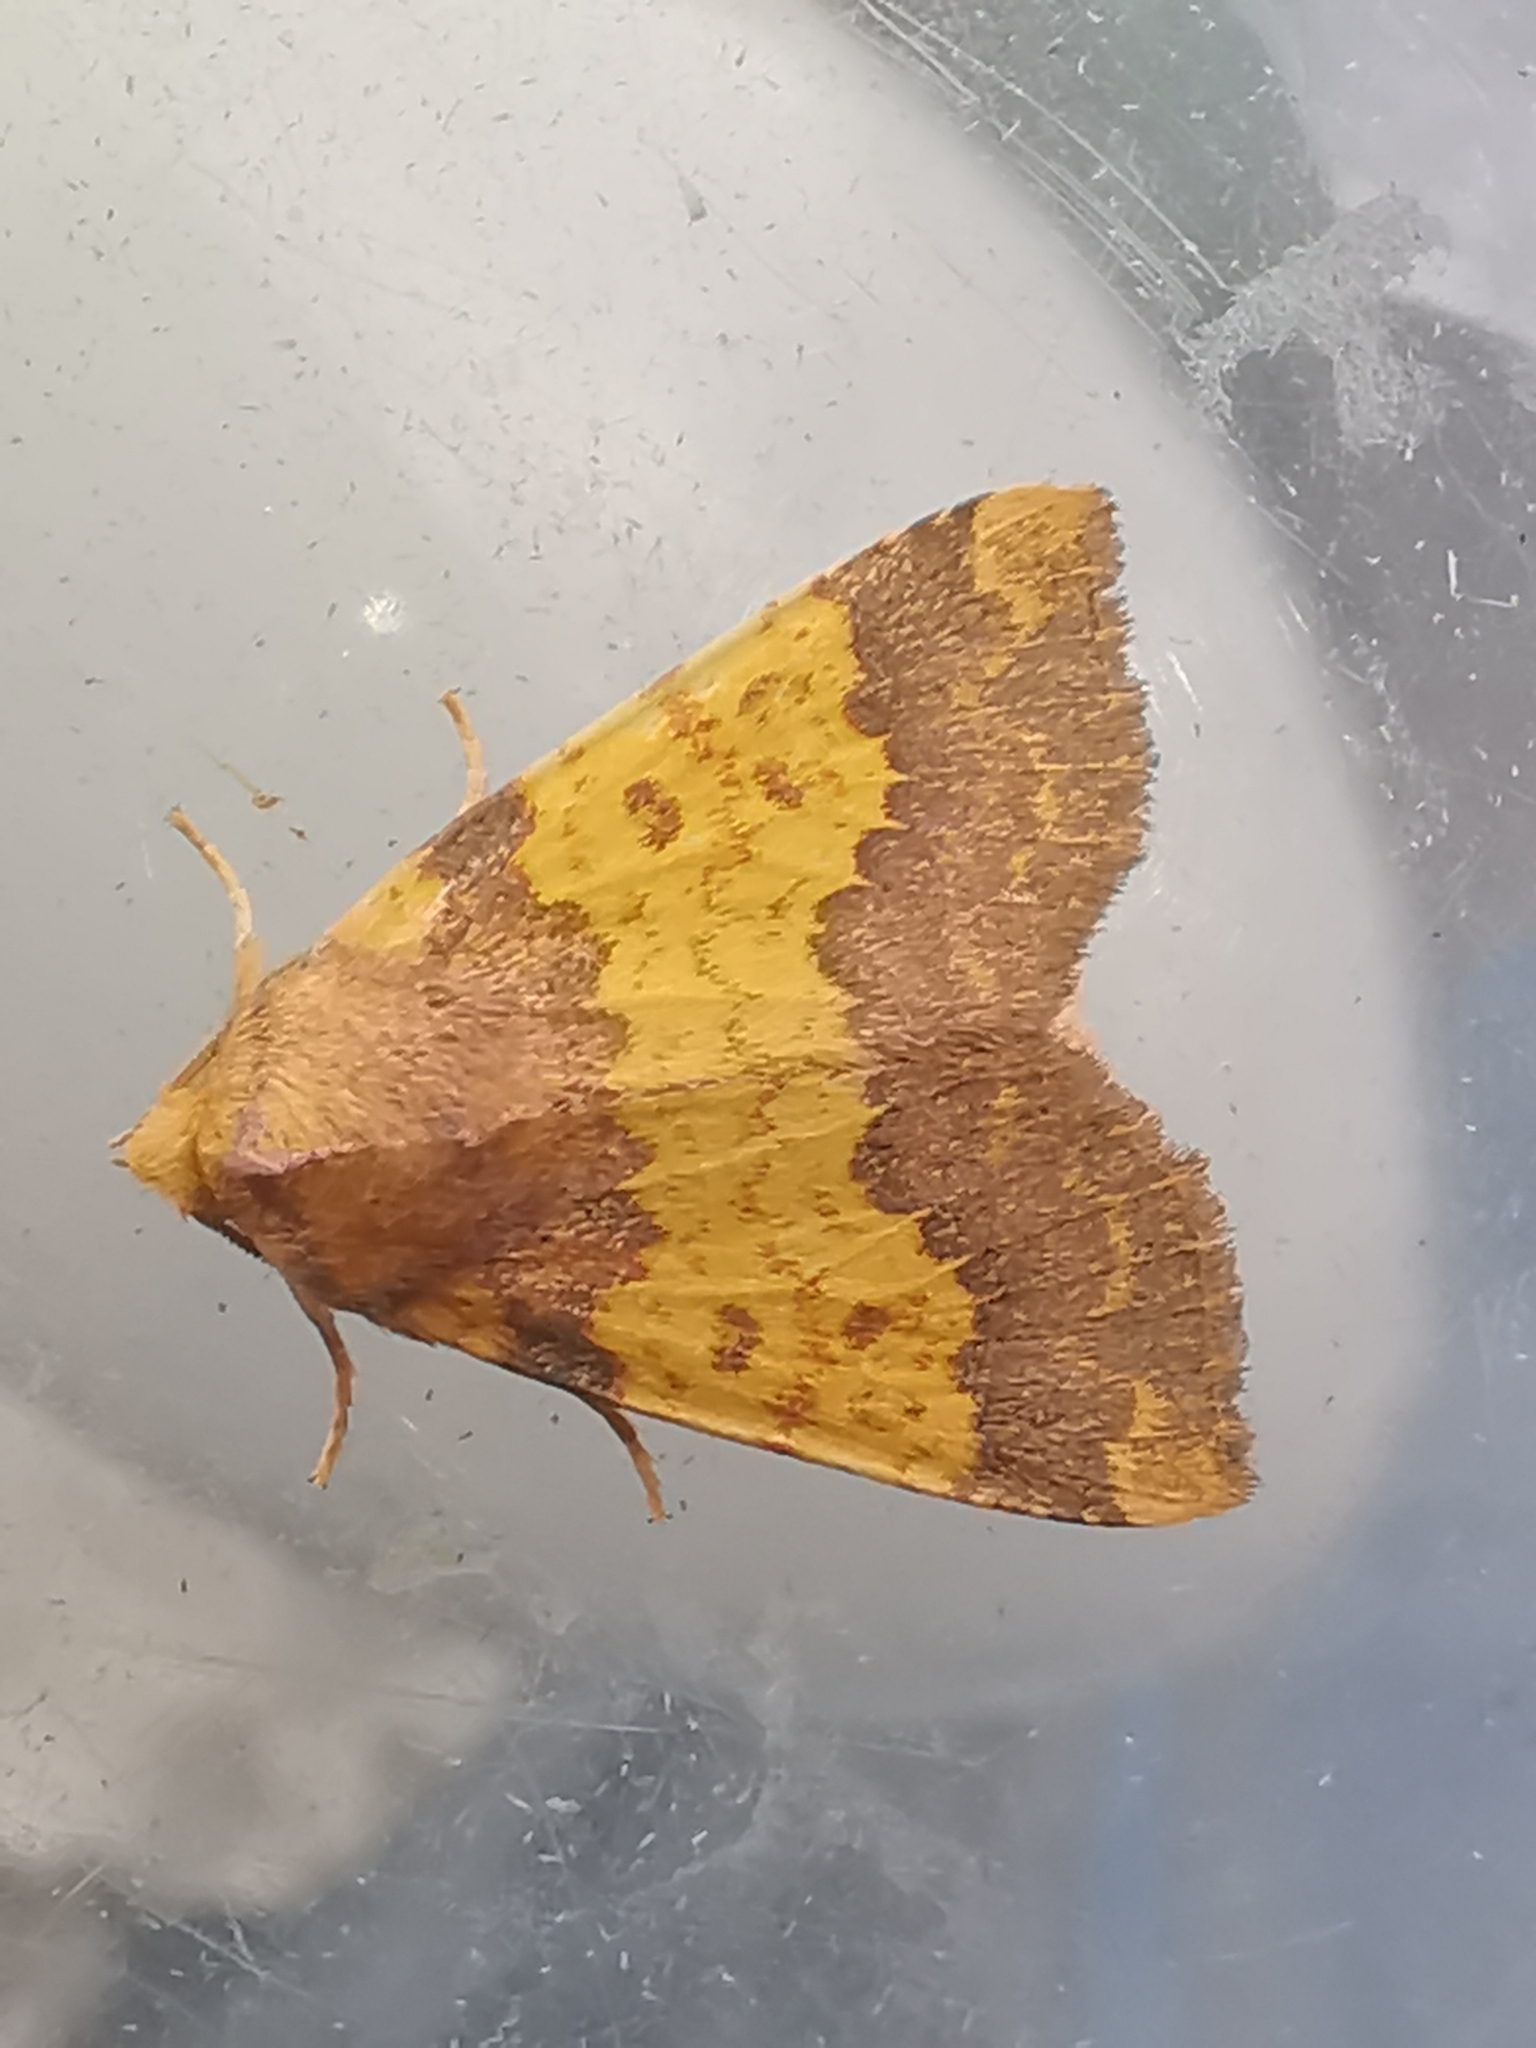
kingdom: Animalia
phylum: Arthropoda
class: Insecta
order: Lepidoptera
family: Noctuidae
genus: Tiliacea
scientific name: Tiliacea aurago
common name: Barred sallow
